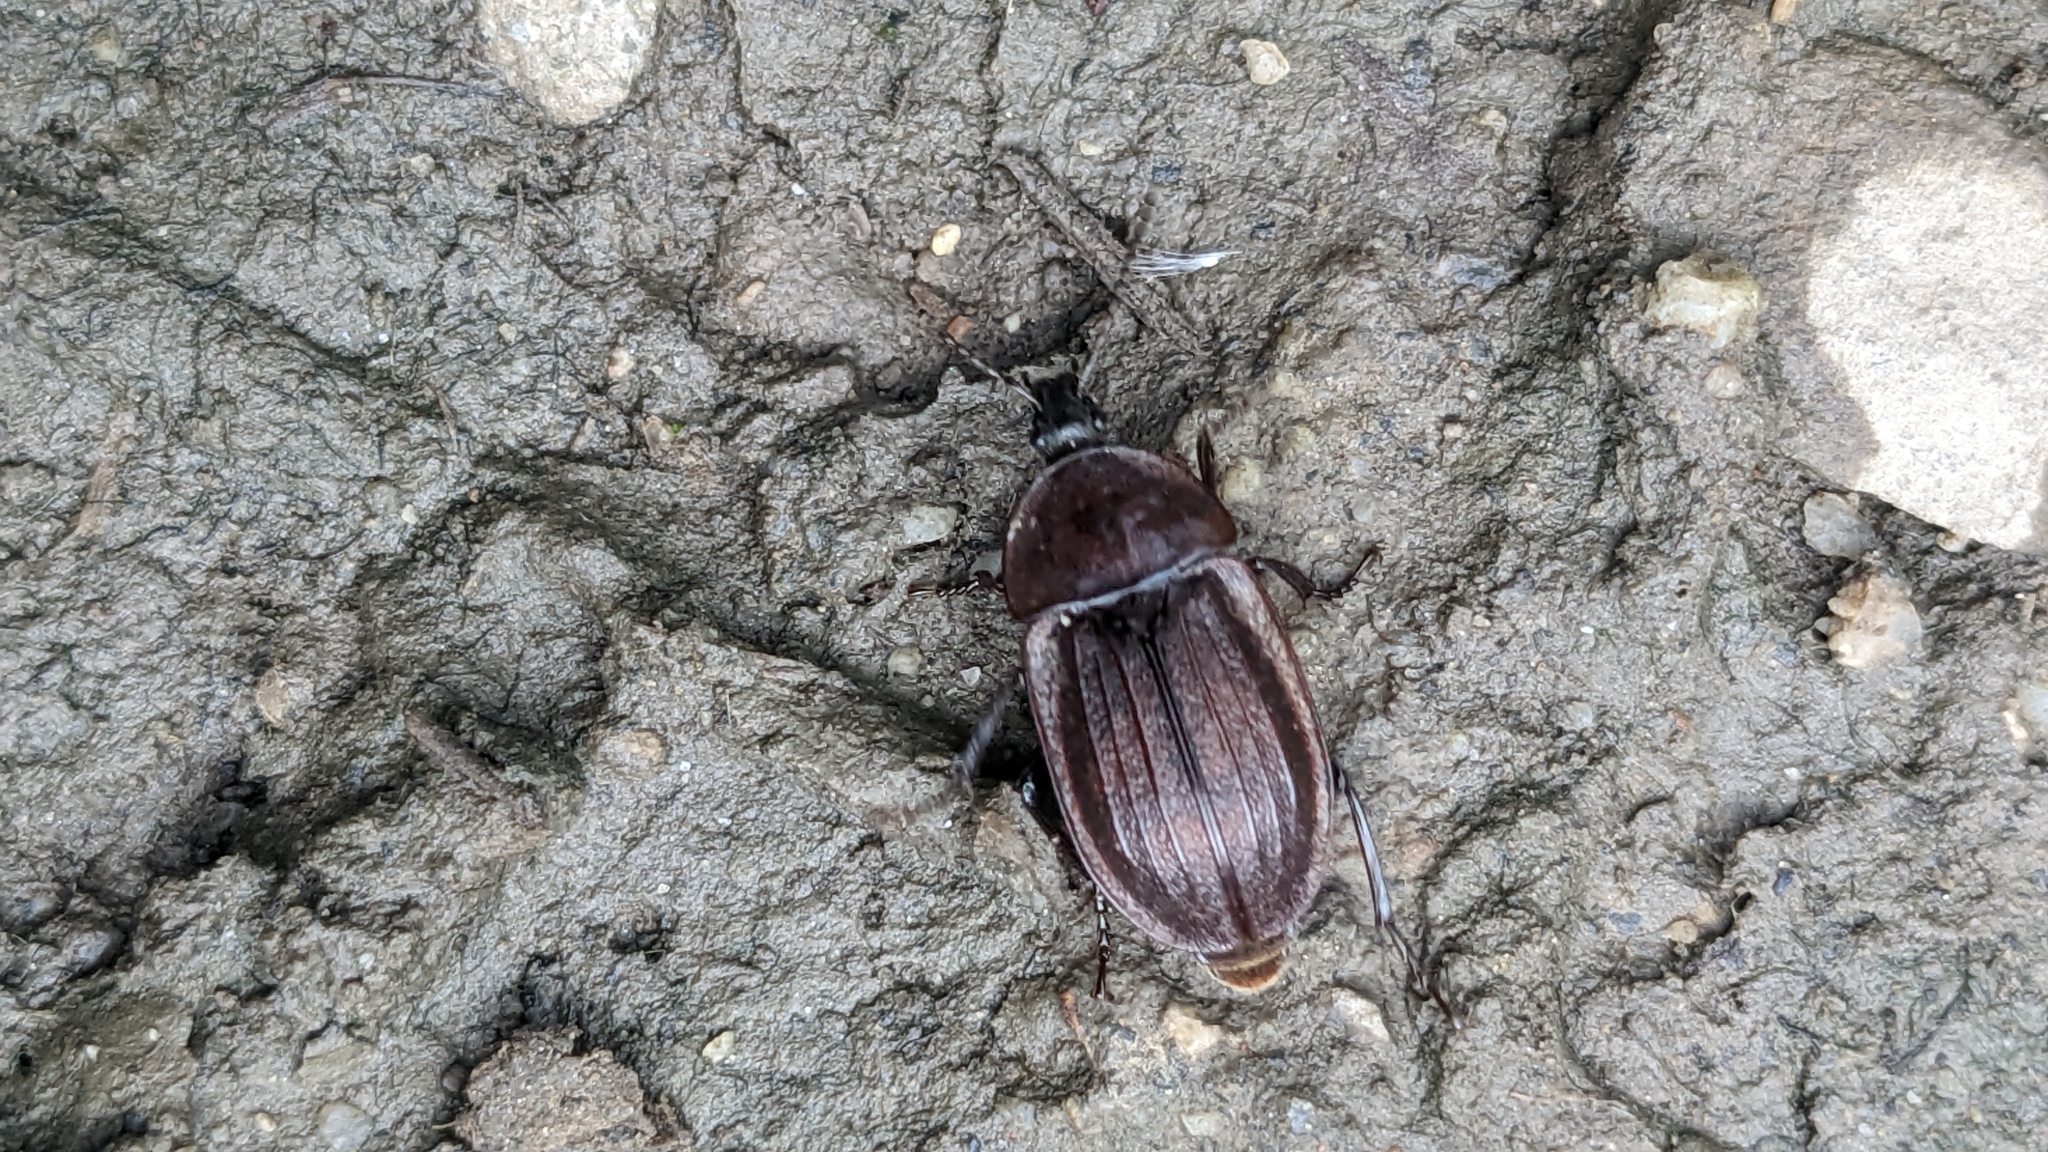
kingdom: Animalia
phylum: Arthropoda
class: Insecta
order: Coleoptera
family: Staphylinidae
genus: Silpha
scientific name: Silpha atrata
